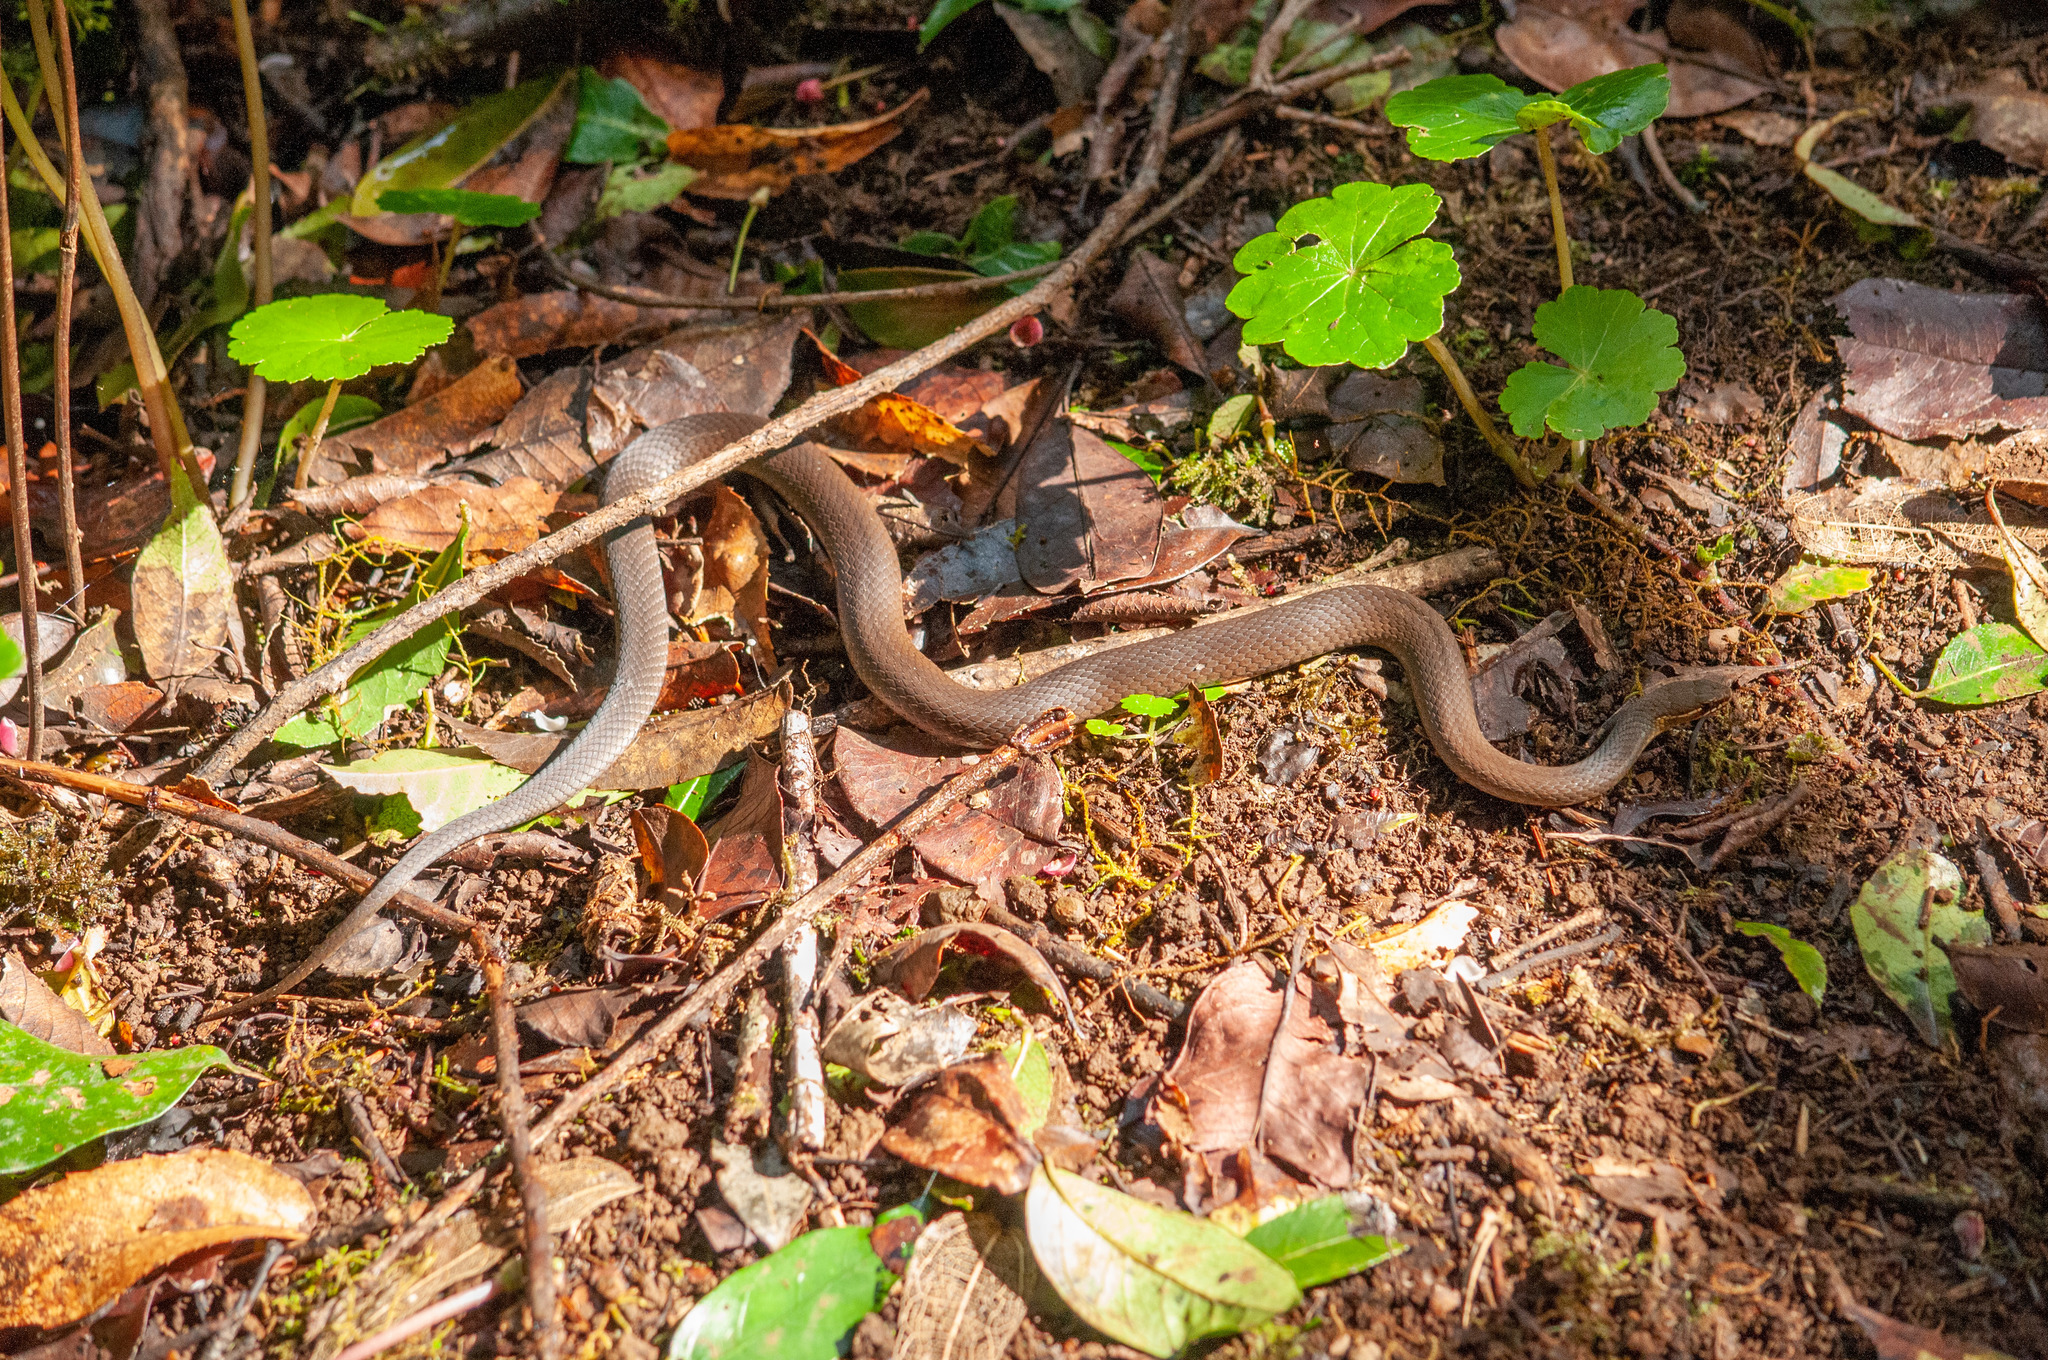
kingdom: Animalia
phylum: Chordata
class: Squamata
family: Elapidae
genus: Hemiaspis
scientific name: Hemiaspis signata
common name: Black-bellied swamp snake
